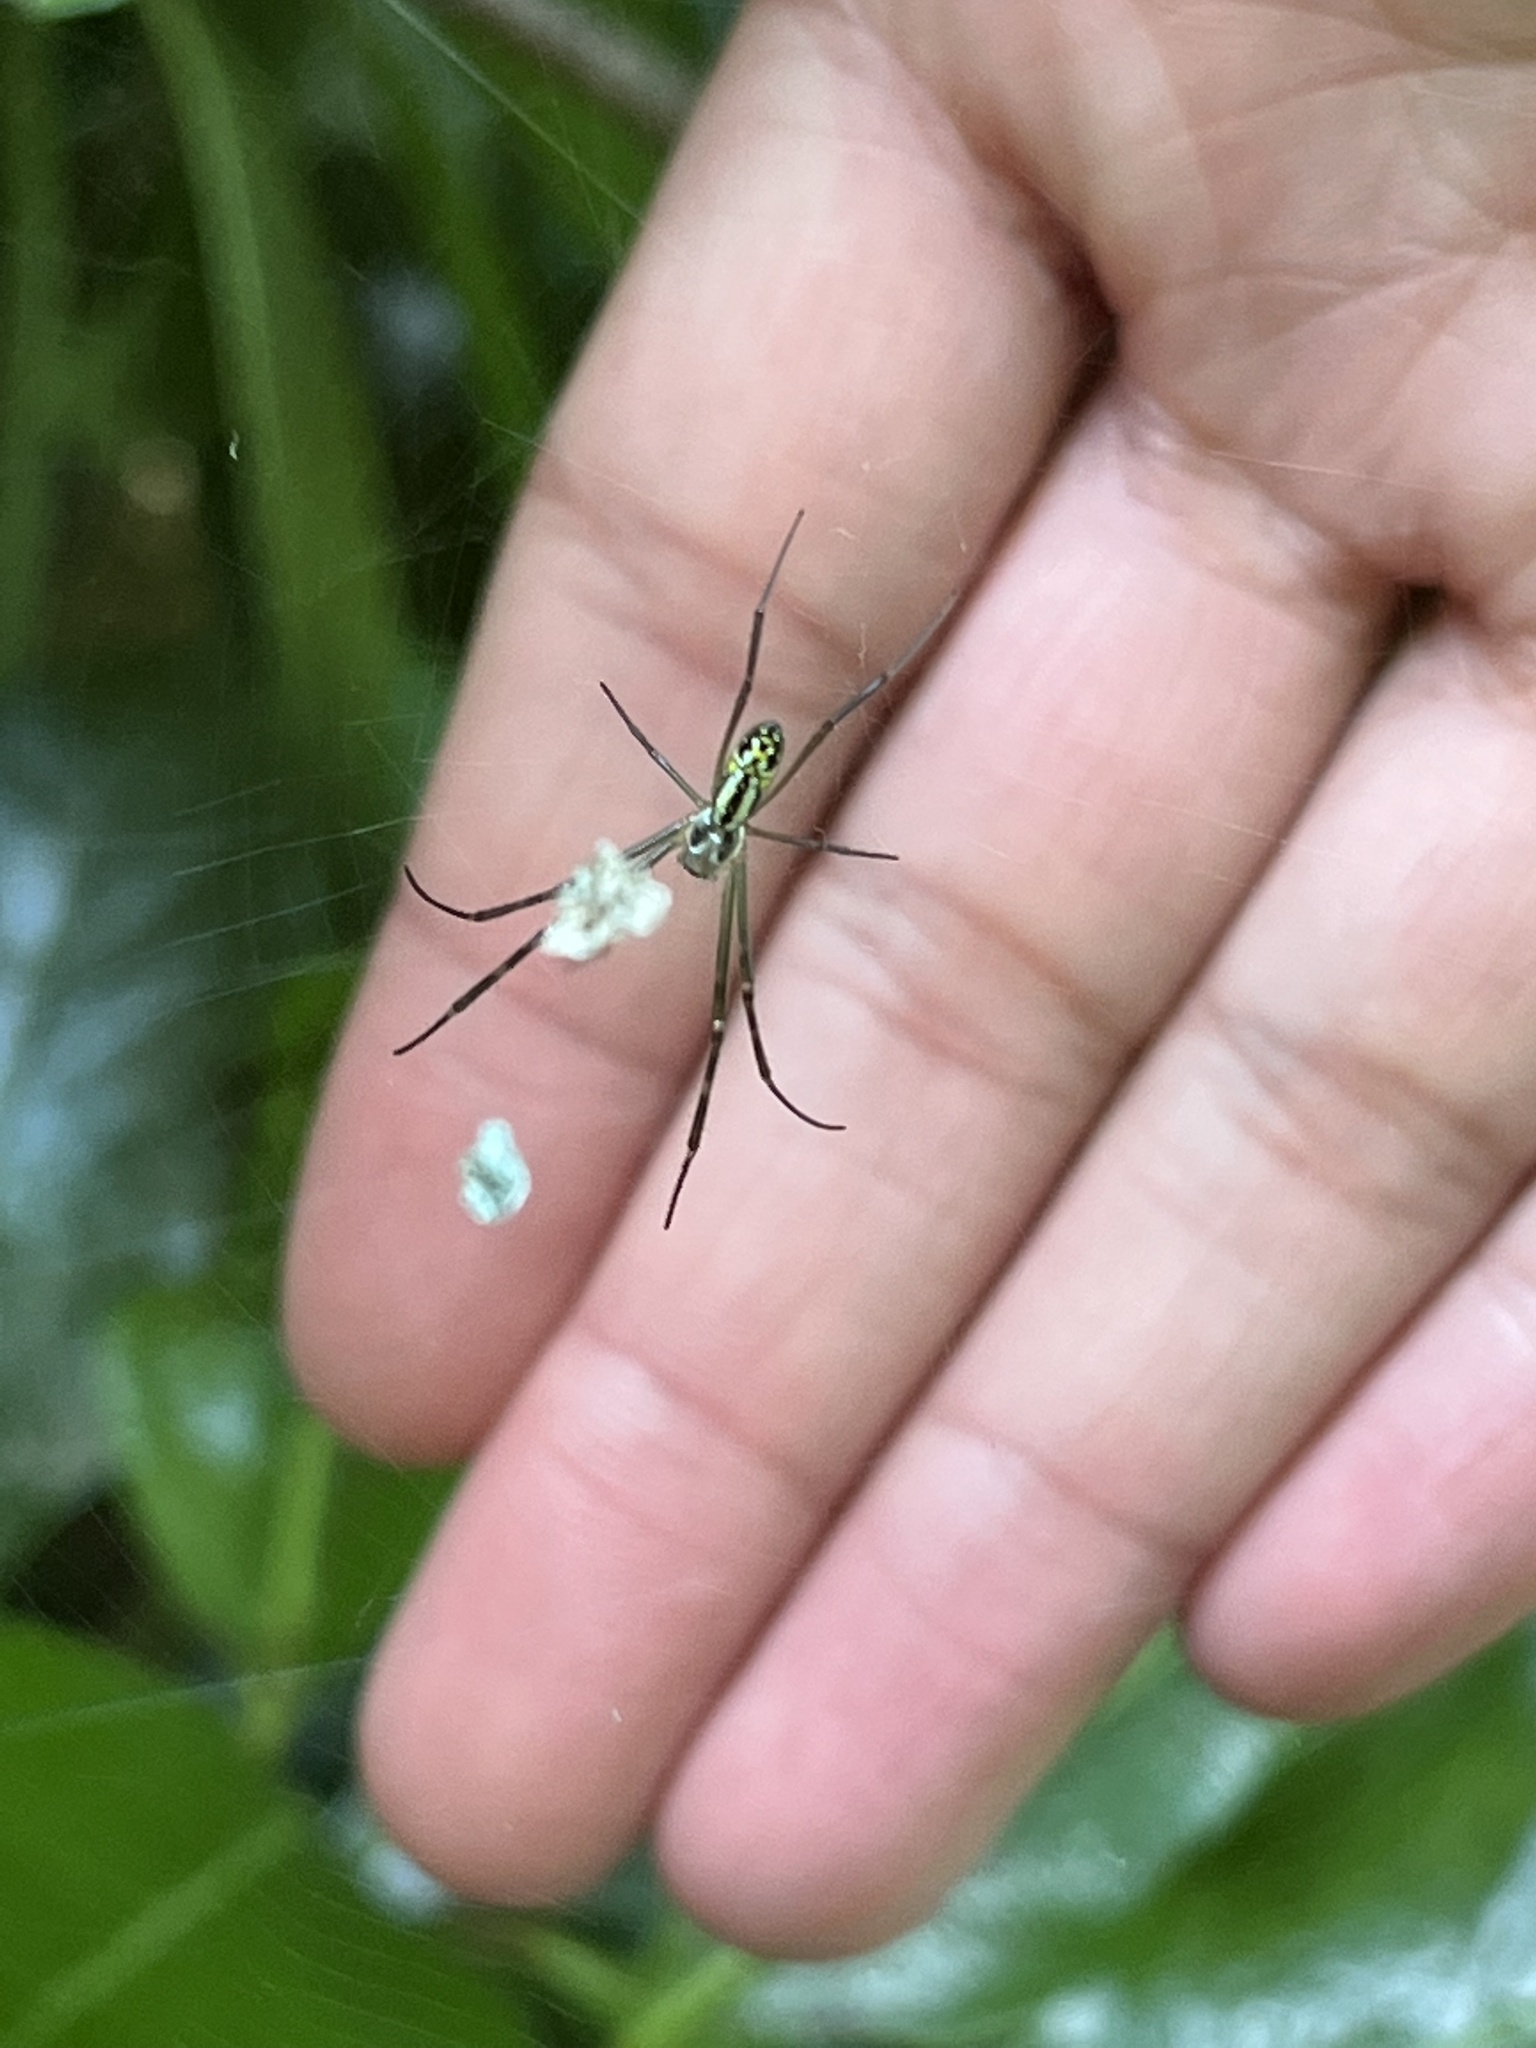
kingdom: Animalia
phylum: Arthropoda
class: Arachnida
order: Araneae
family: Araneidae
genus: Trichonephila
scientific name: Trichonephila clavata
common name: Jorō spider
